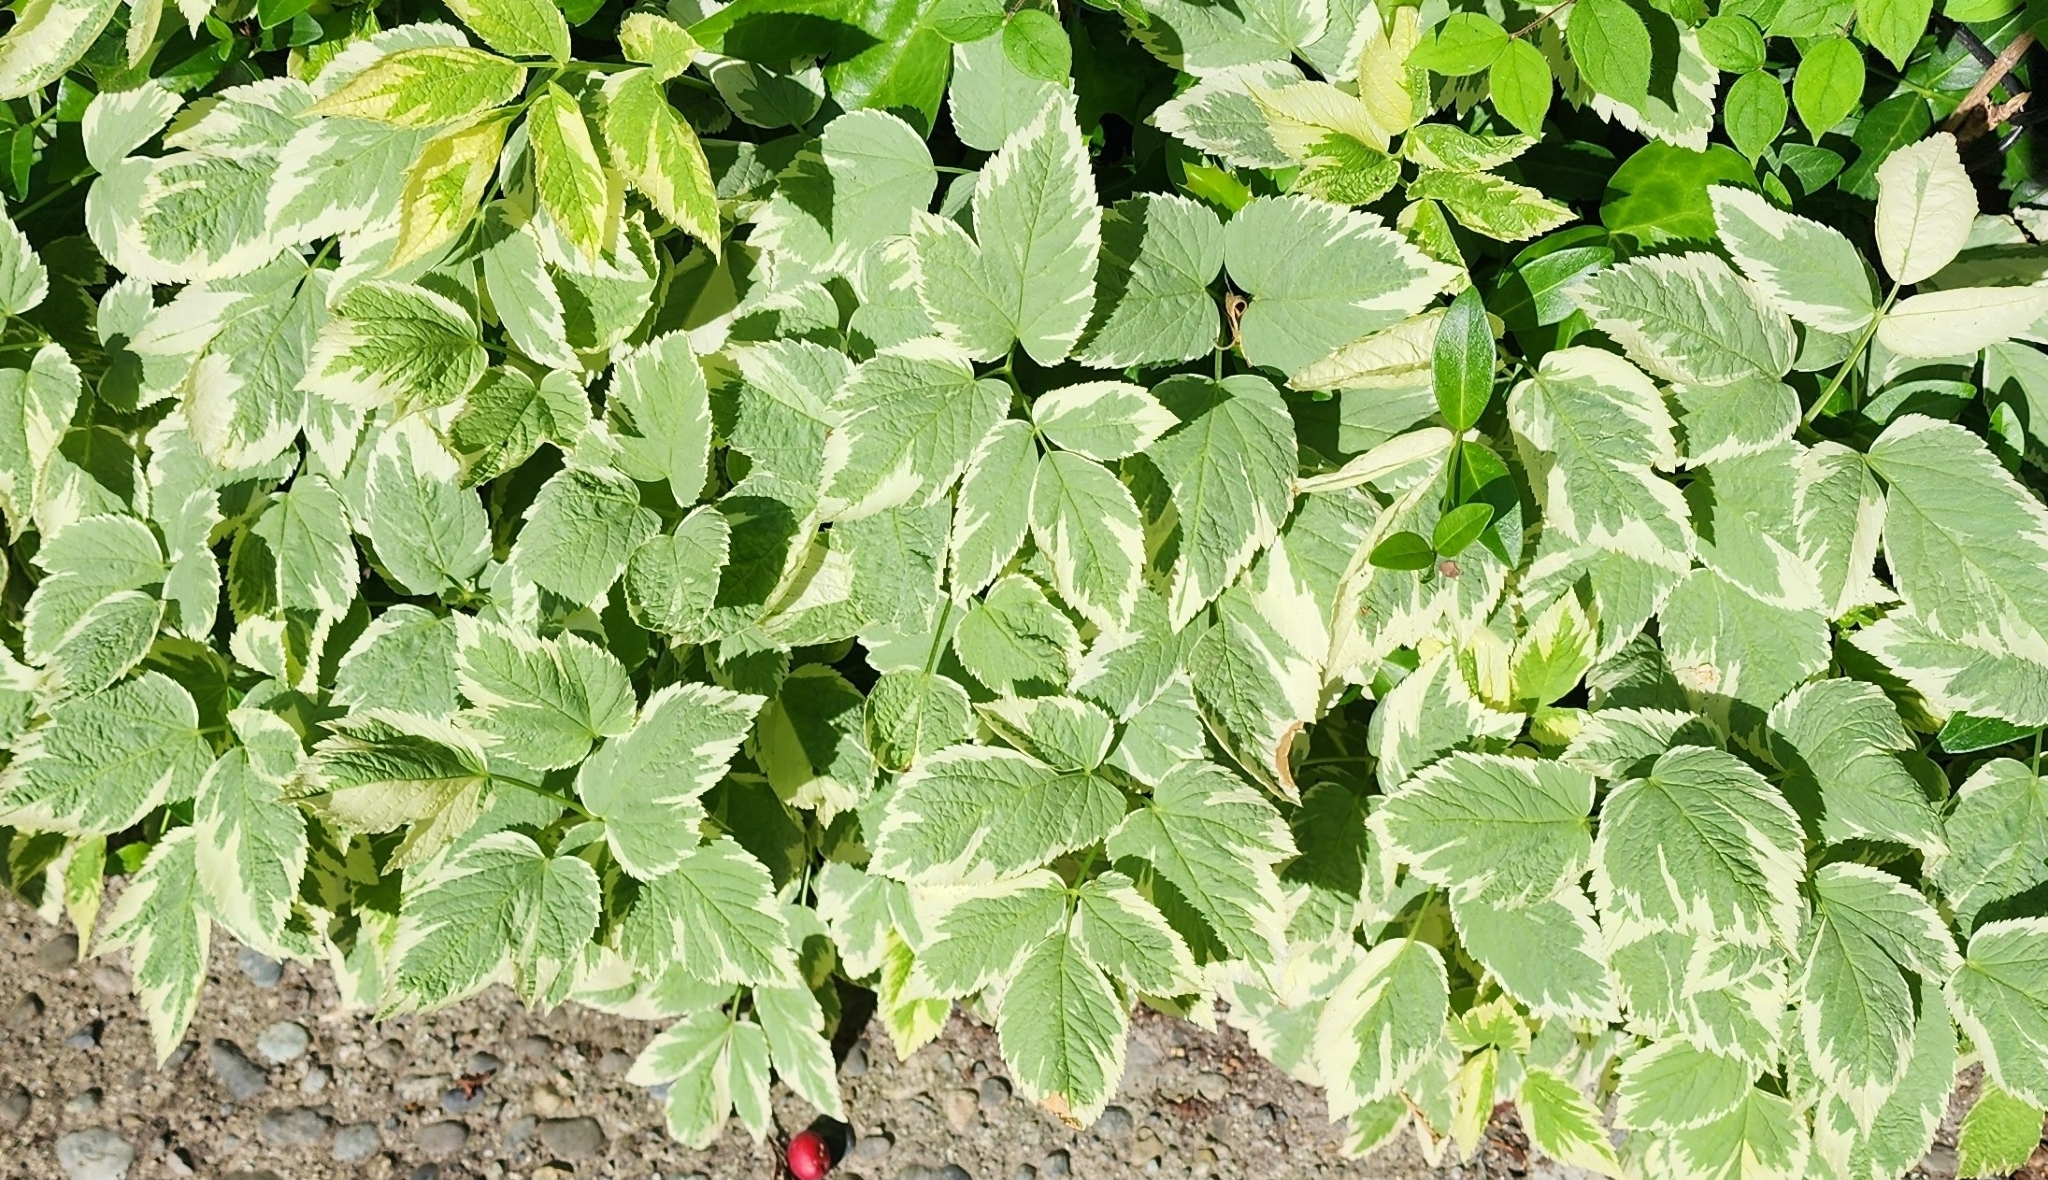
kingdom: Plantae
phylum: Tracheophyta
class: Magnoliopsida
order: Apiales
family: Apiaceae
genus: Aegopodium
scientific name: Aegopodium podagraria
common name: Ground-elder
